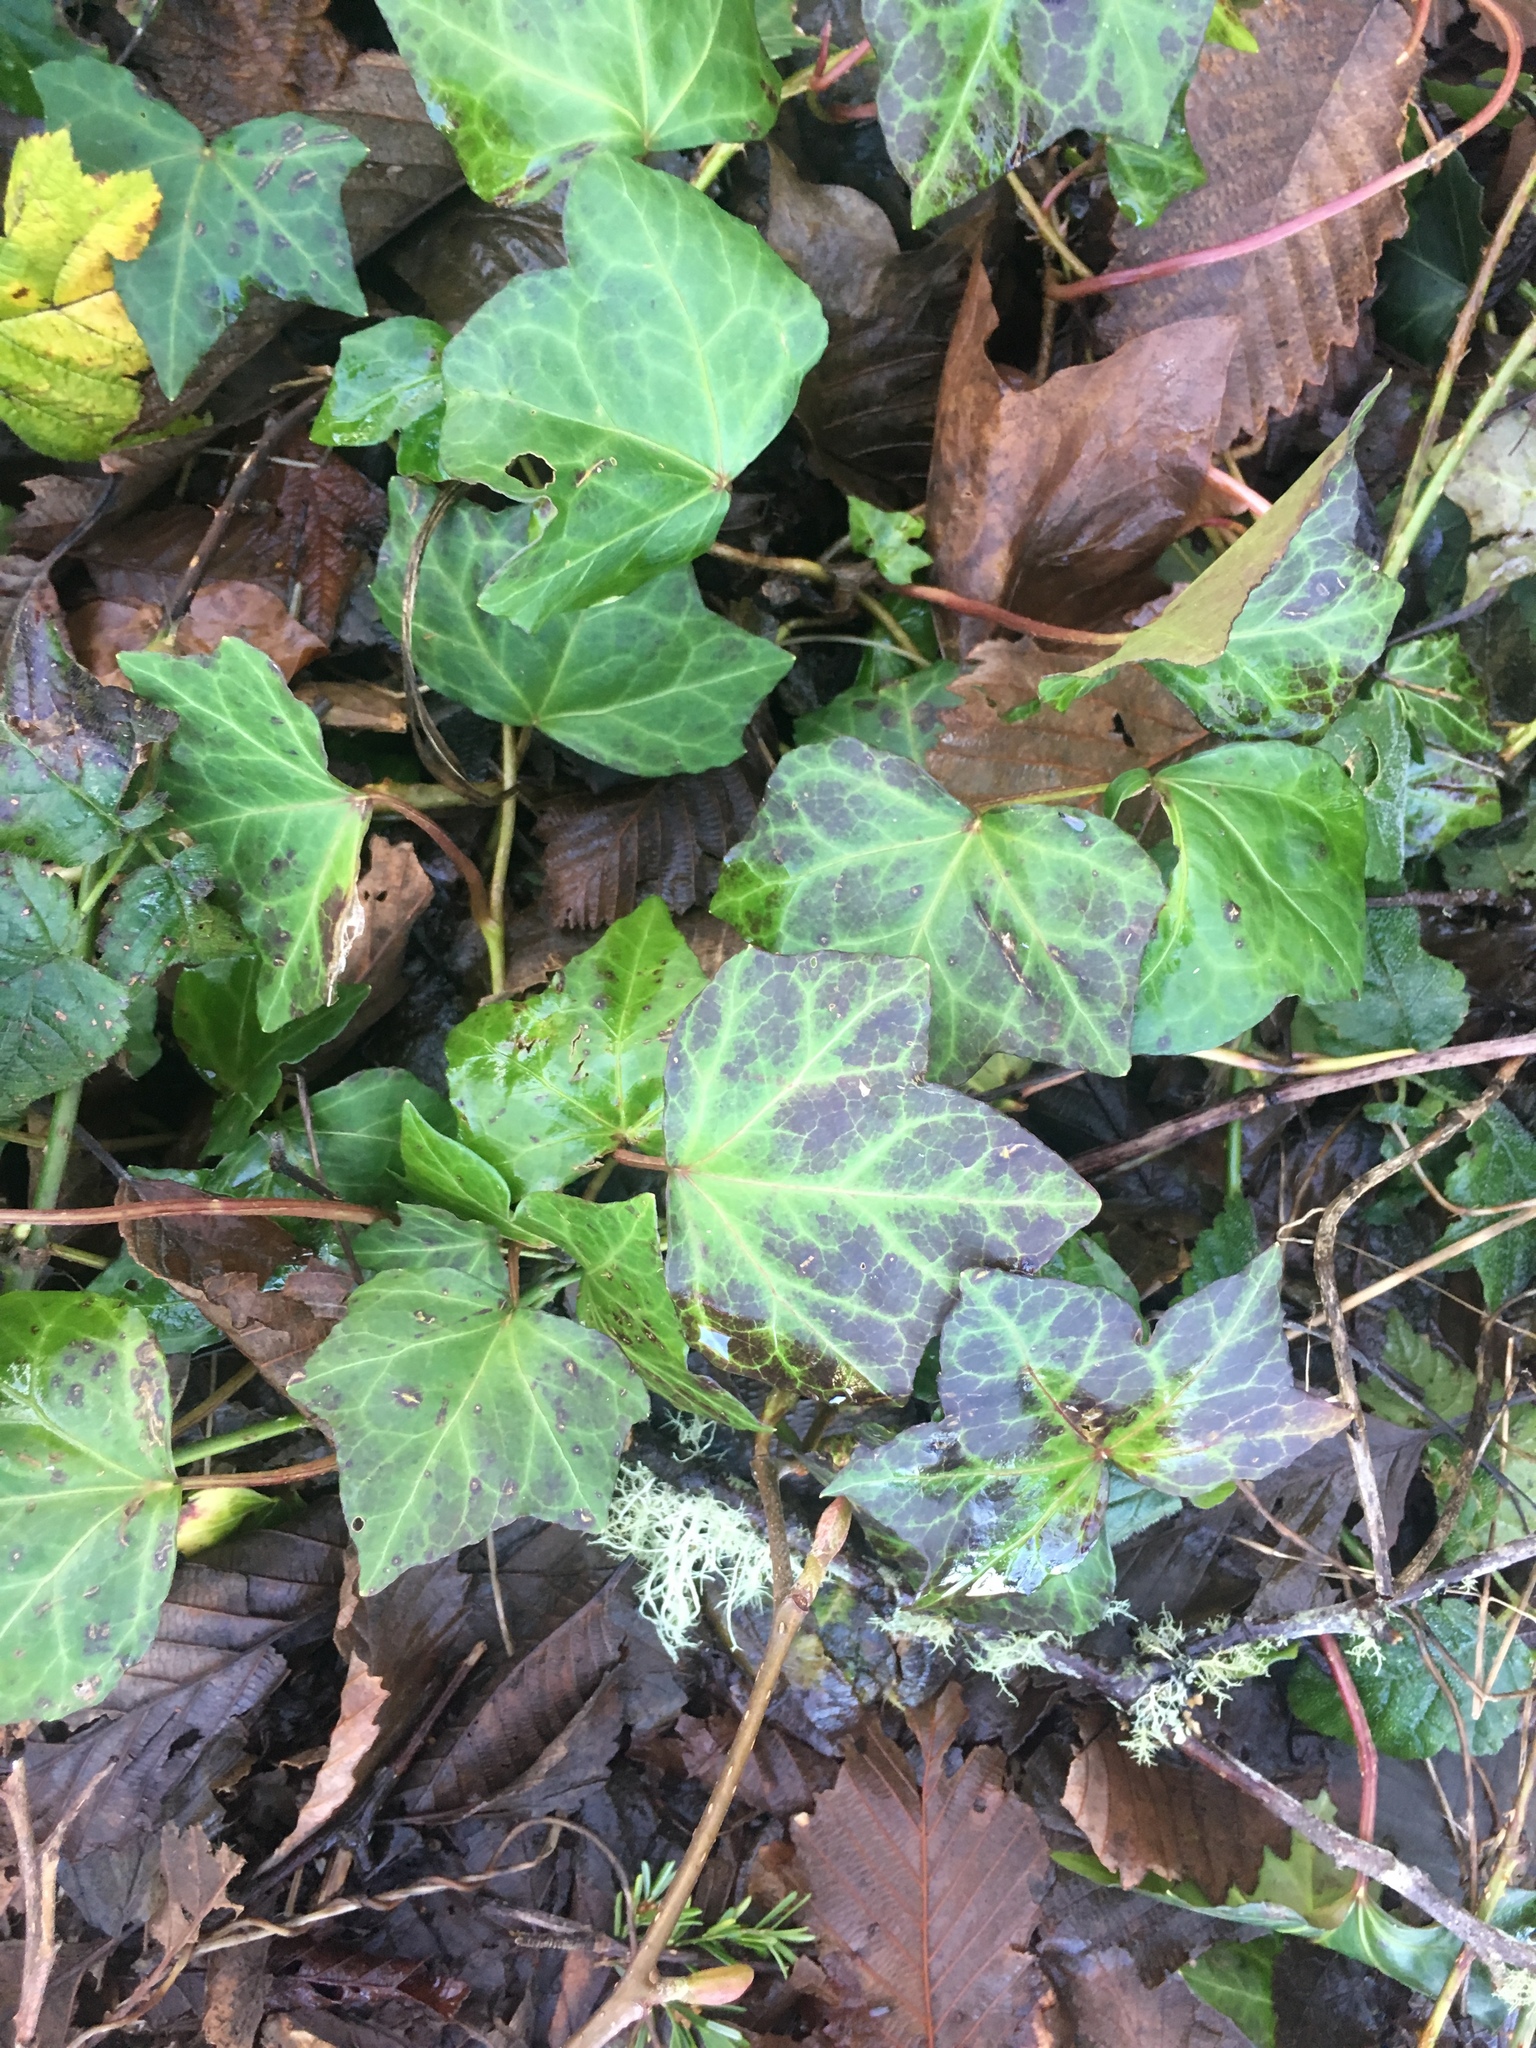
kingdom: Plantae
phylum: Tracheophyta
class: Magnoliopsida
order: Apiales
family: Araliaceae
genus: Hedera
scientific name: Hedera helix
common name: Ivy
